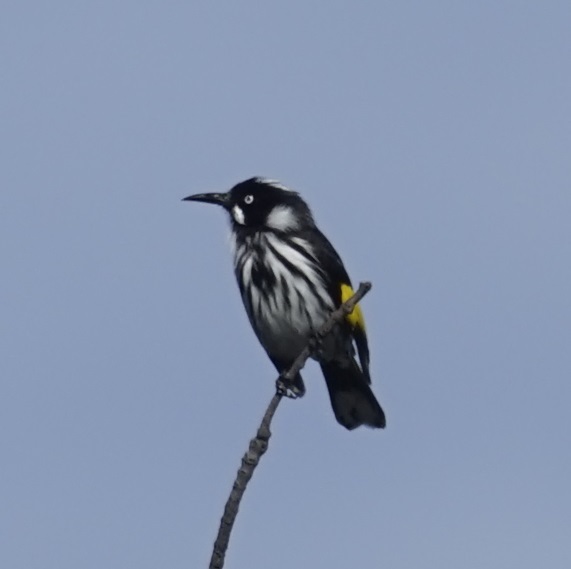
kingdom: Animalia
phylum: Chordata
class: Aves
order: Passeriformes
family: Meliphagidae
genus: Phylidonyris
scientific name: Phylidonyris novaehollandiae
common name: New holland honeyeater
